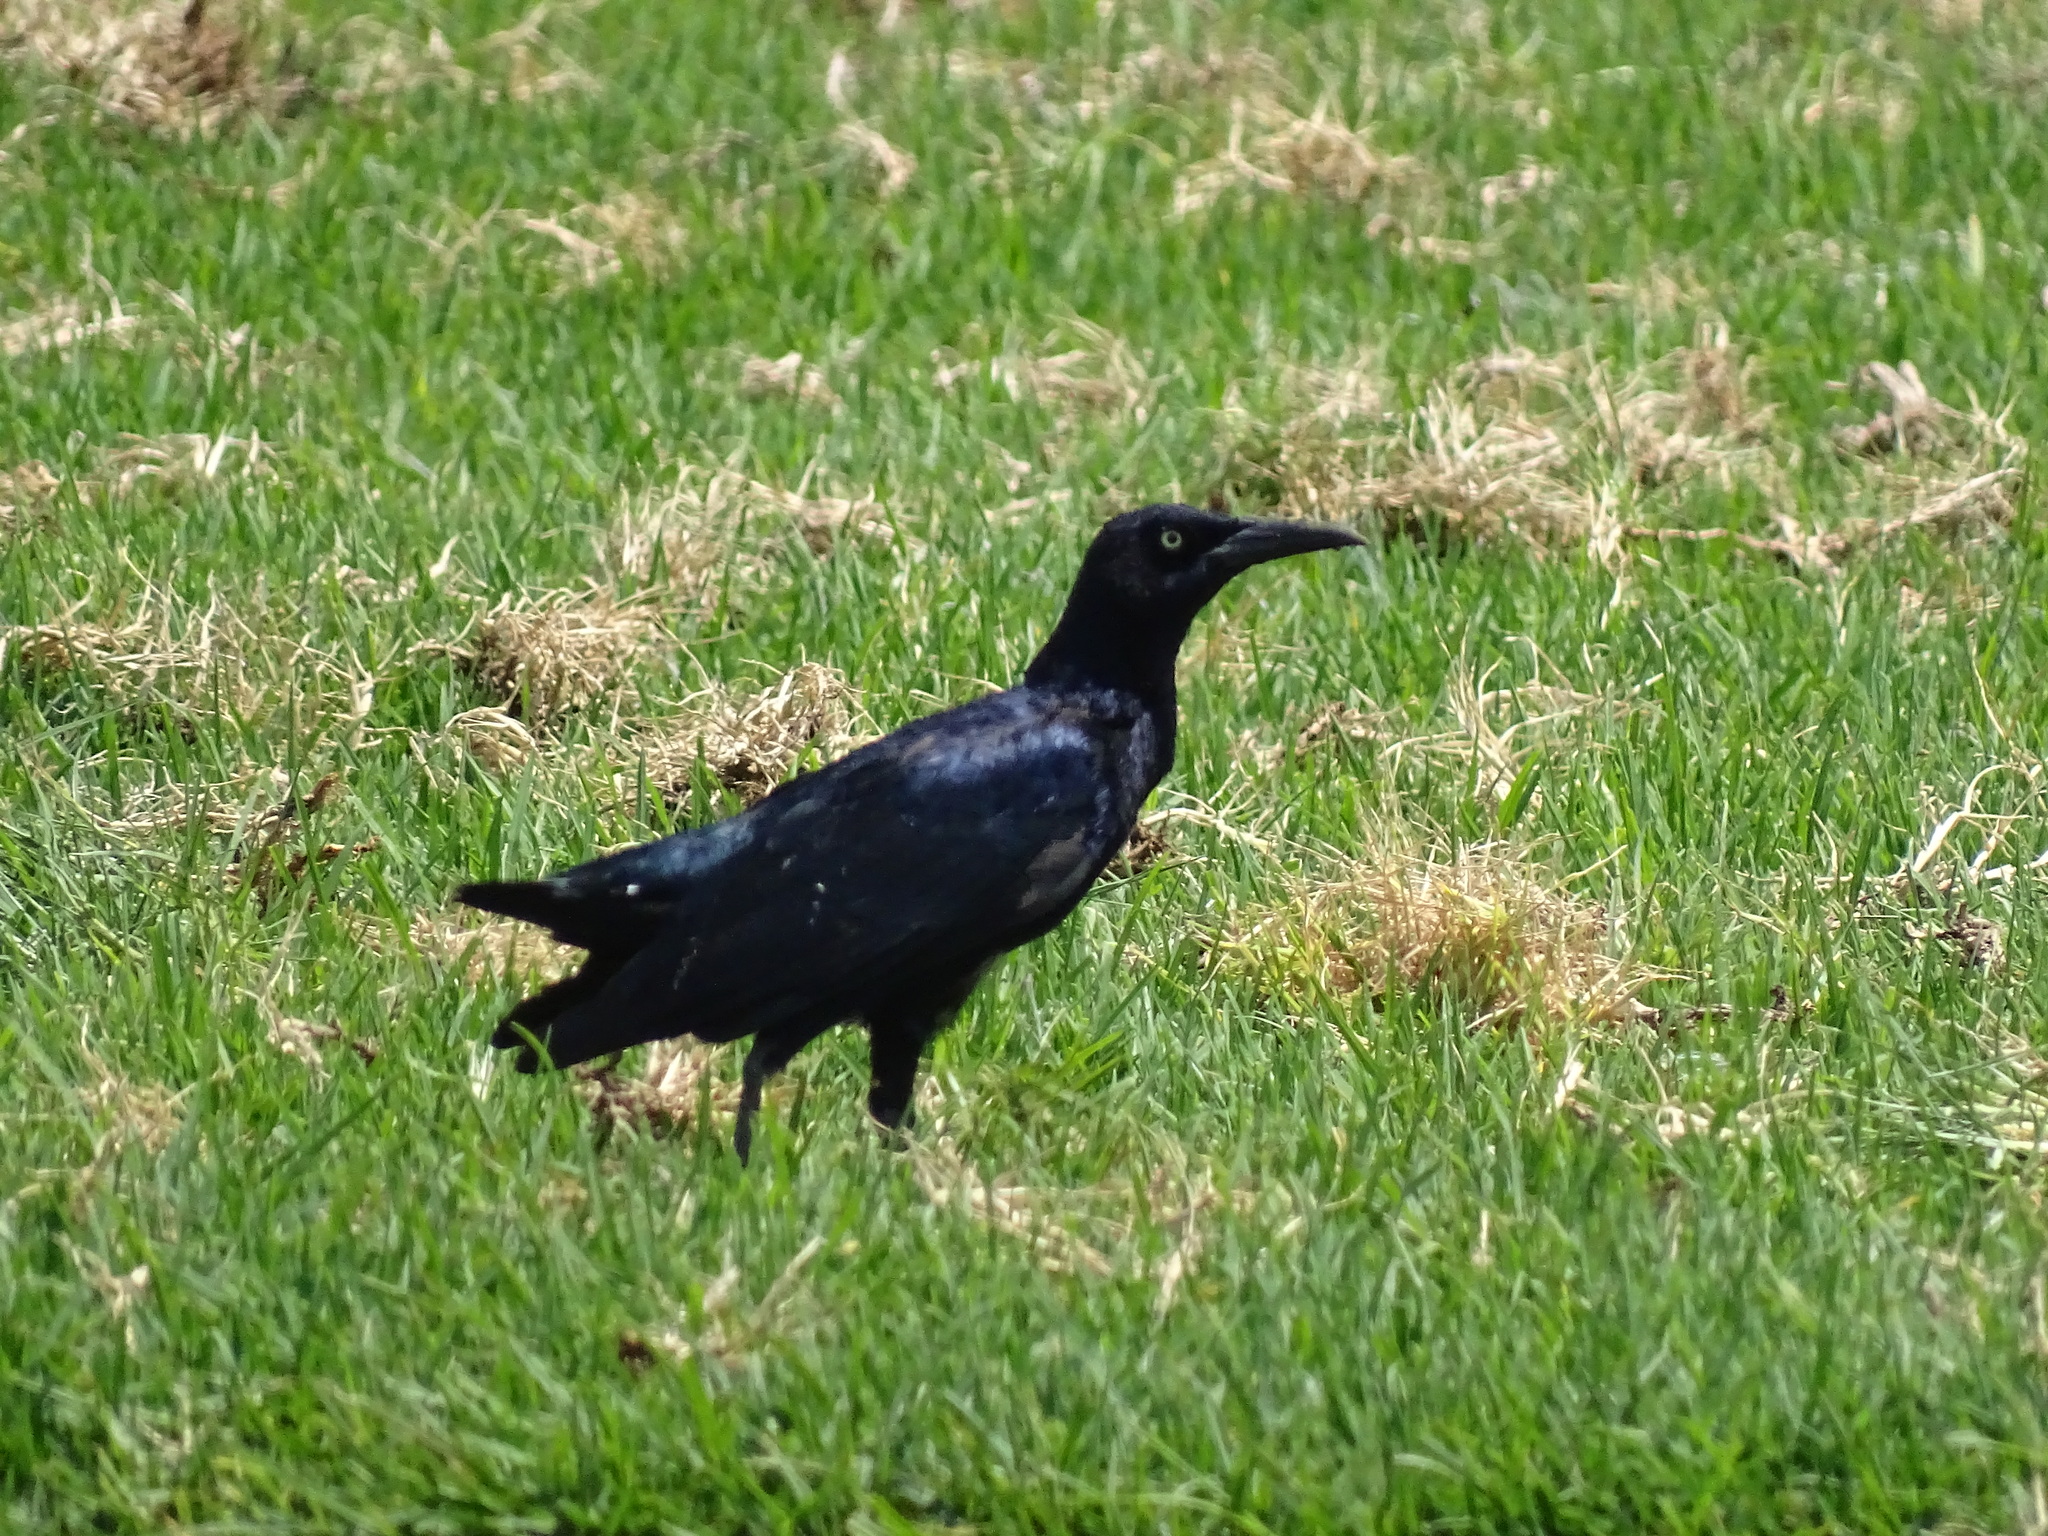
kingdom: Animalia
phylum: Chordata
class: Aves
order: Passeriformes
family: Icteridae
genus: Quiscalus
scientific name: Quiscalus mexicanus
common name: Great-tailed grackle
